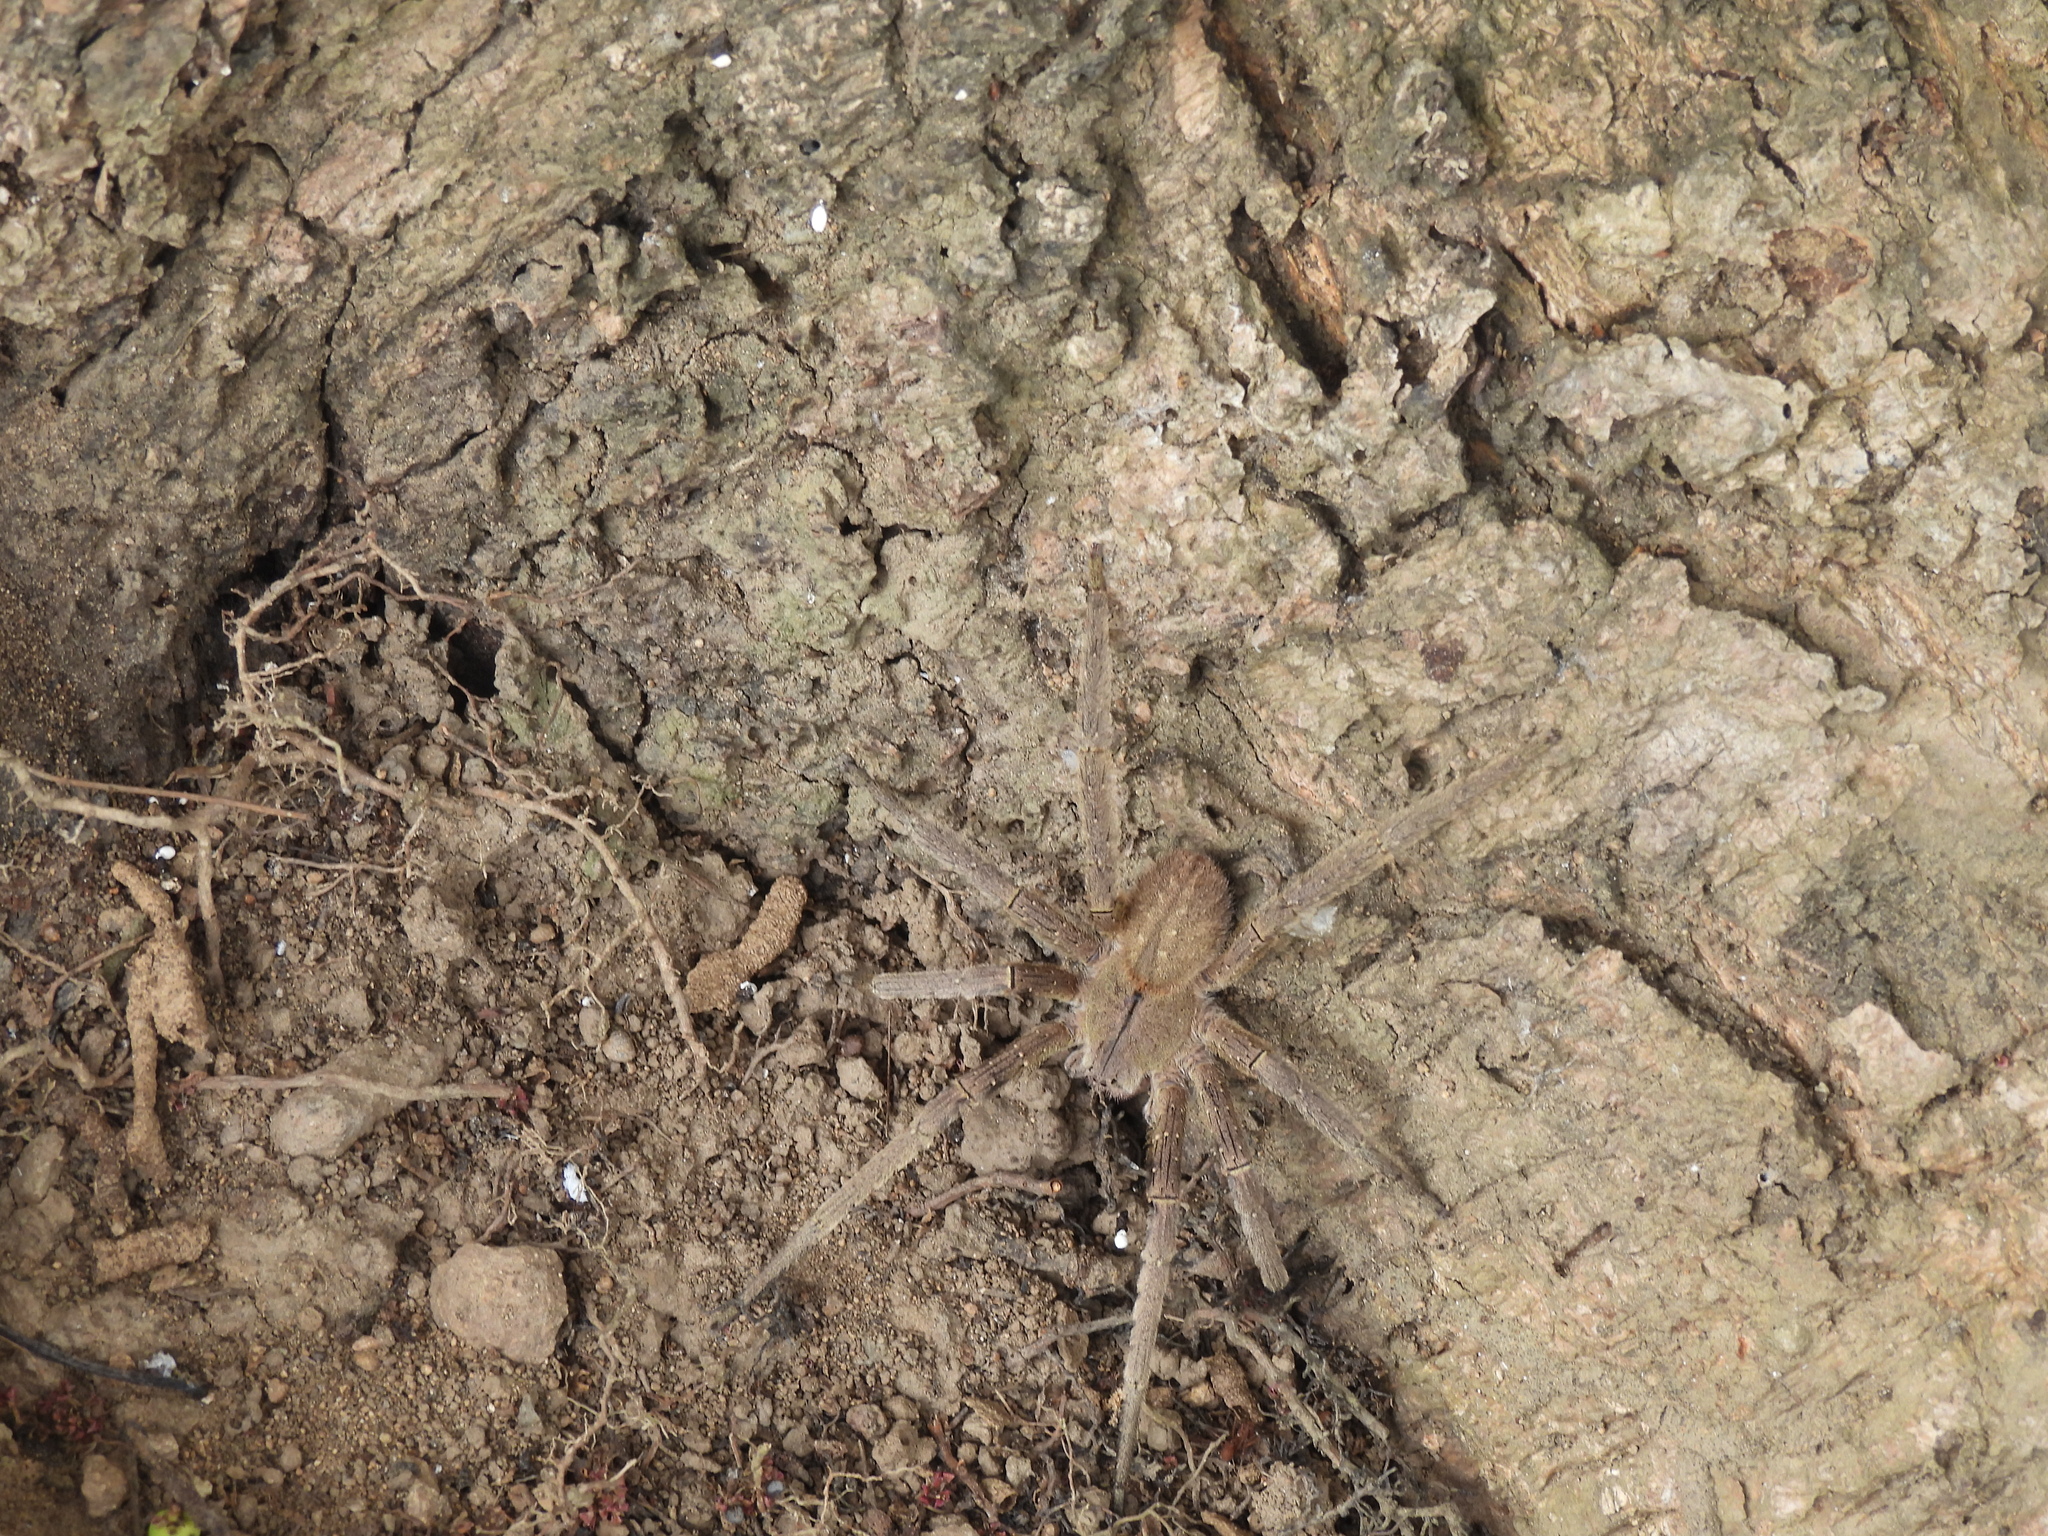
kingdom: Animalia
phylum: Arthropoda
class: Arachnida
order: Araneae
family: Ctenidae
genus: Phoneutria
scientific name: Phoneutria depilata
